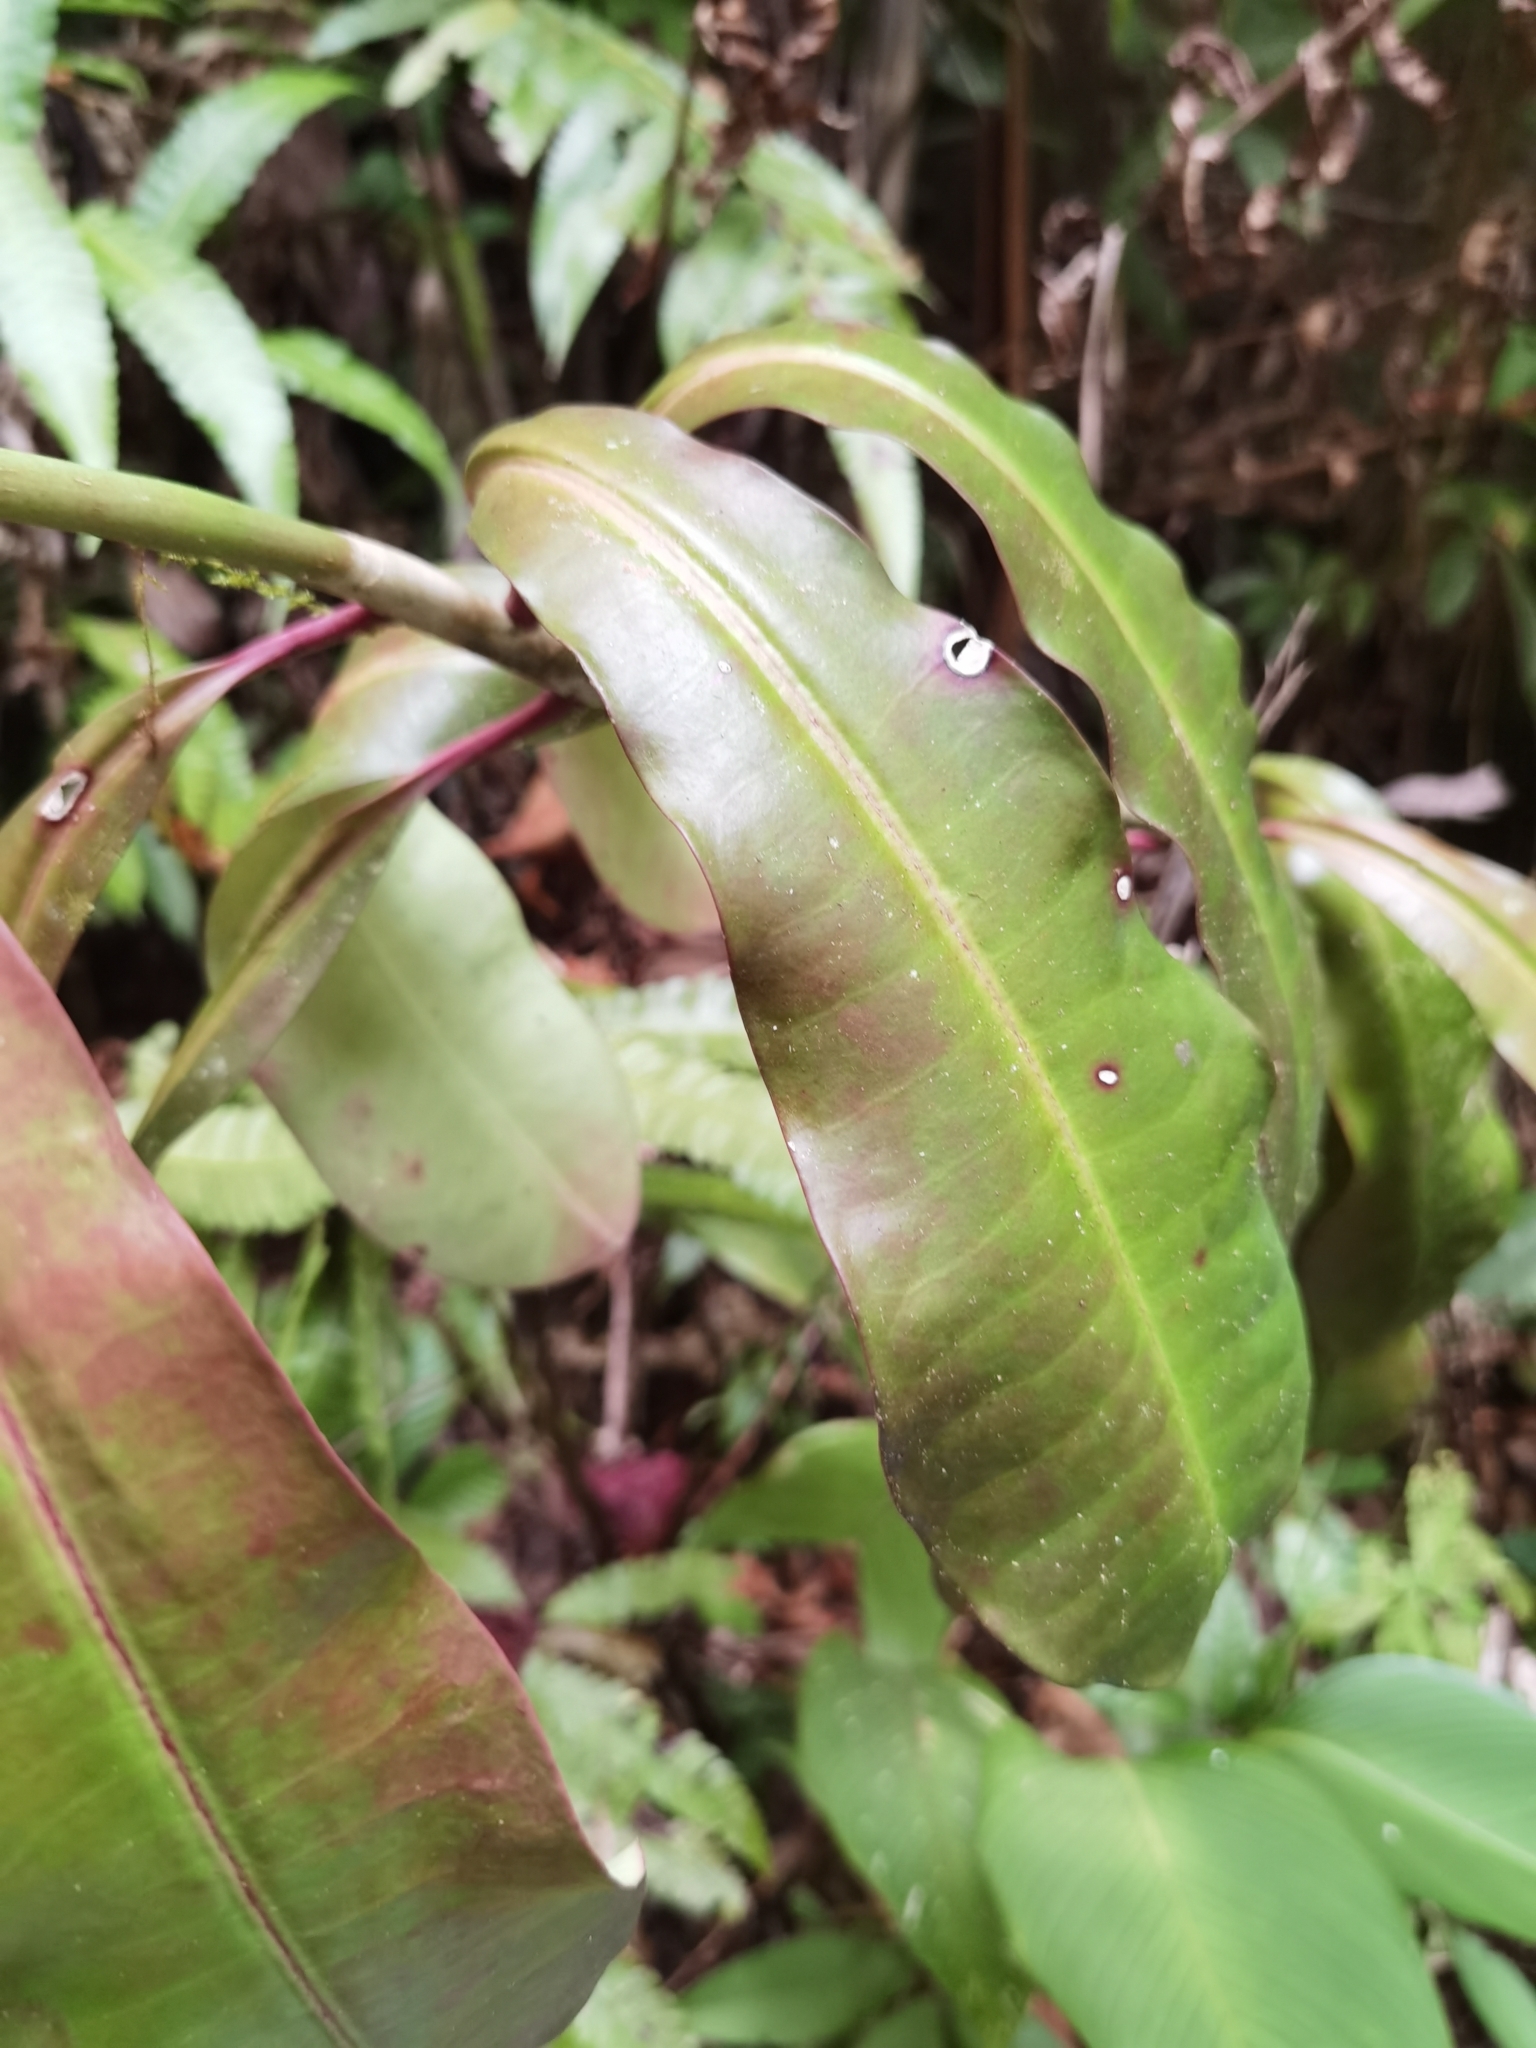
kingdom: Plantae
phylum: Tracheophyta
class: Magnoliopsida
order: Malpighiales
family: Euphorbiaceae
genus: Euphorbia
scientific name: Euphorbia sinclairiana
